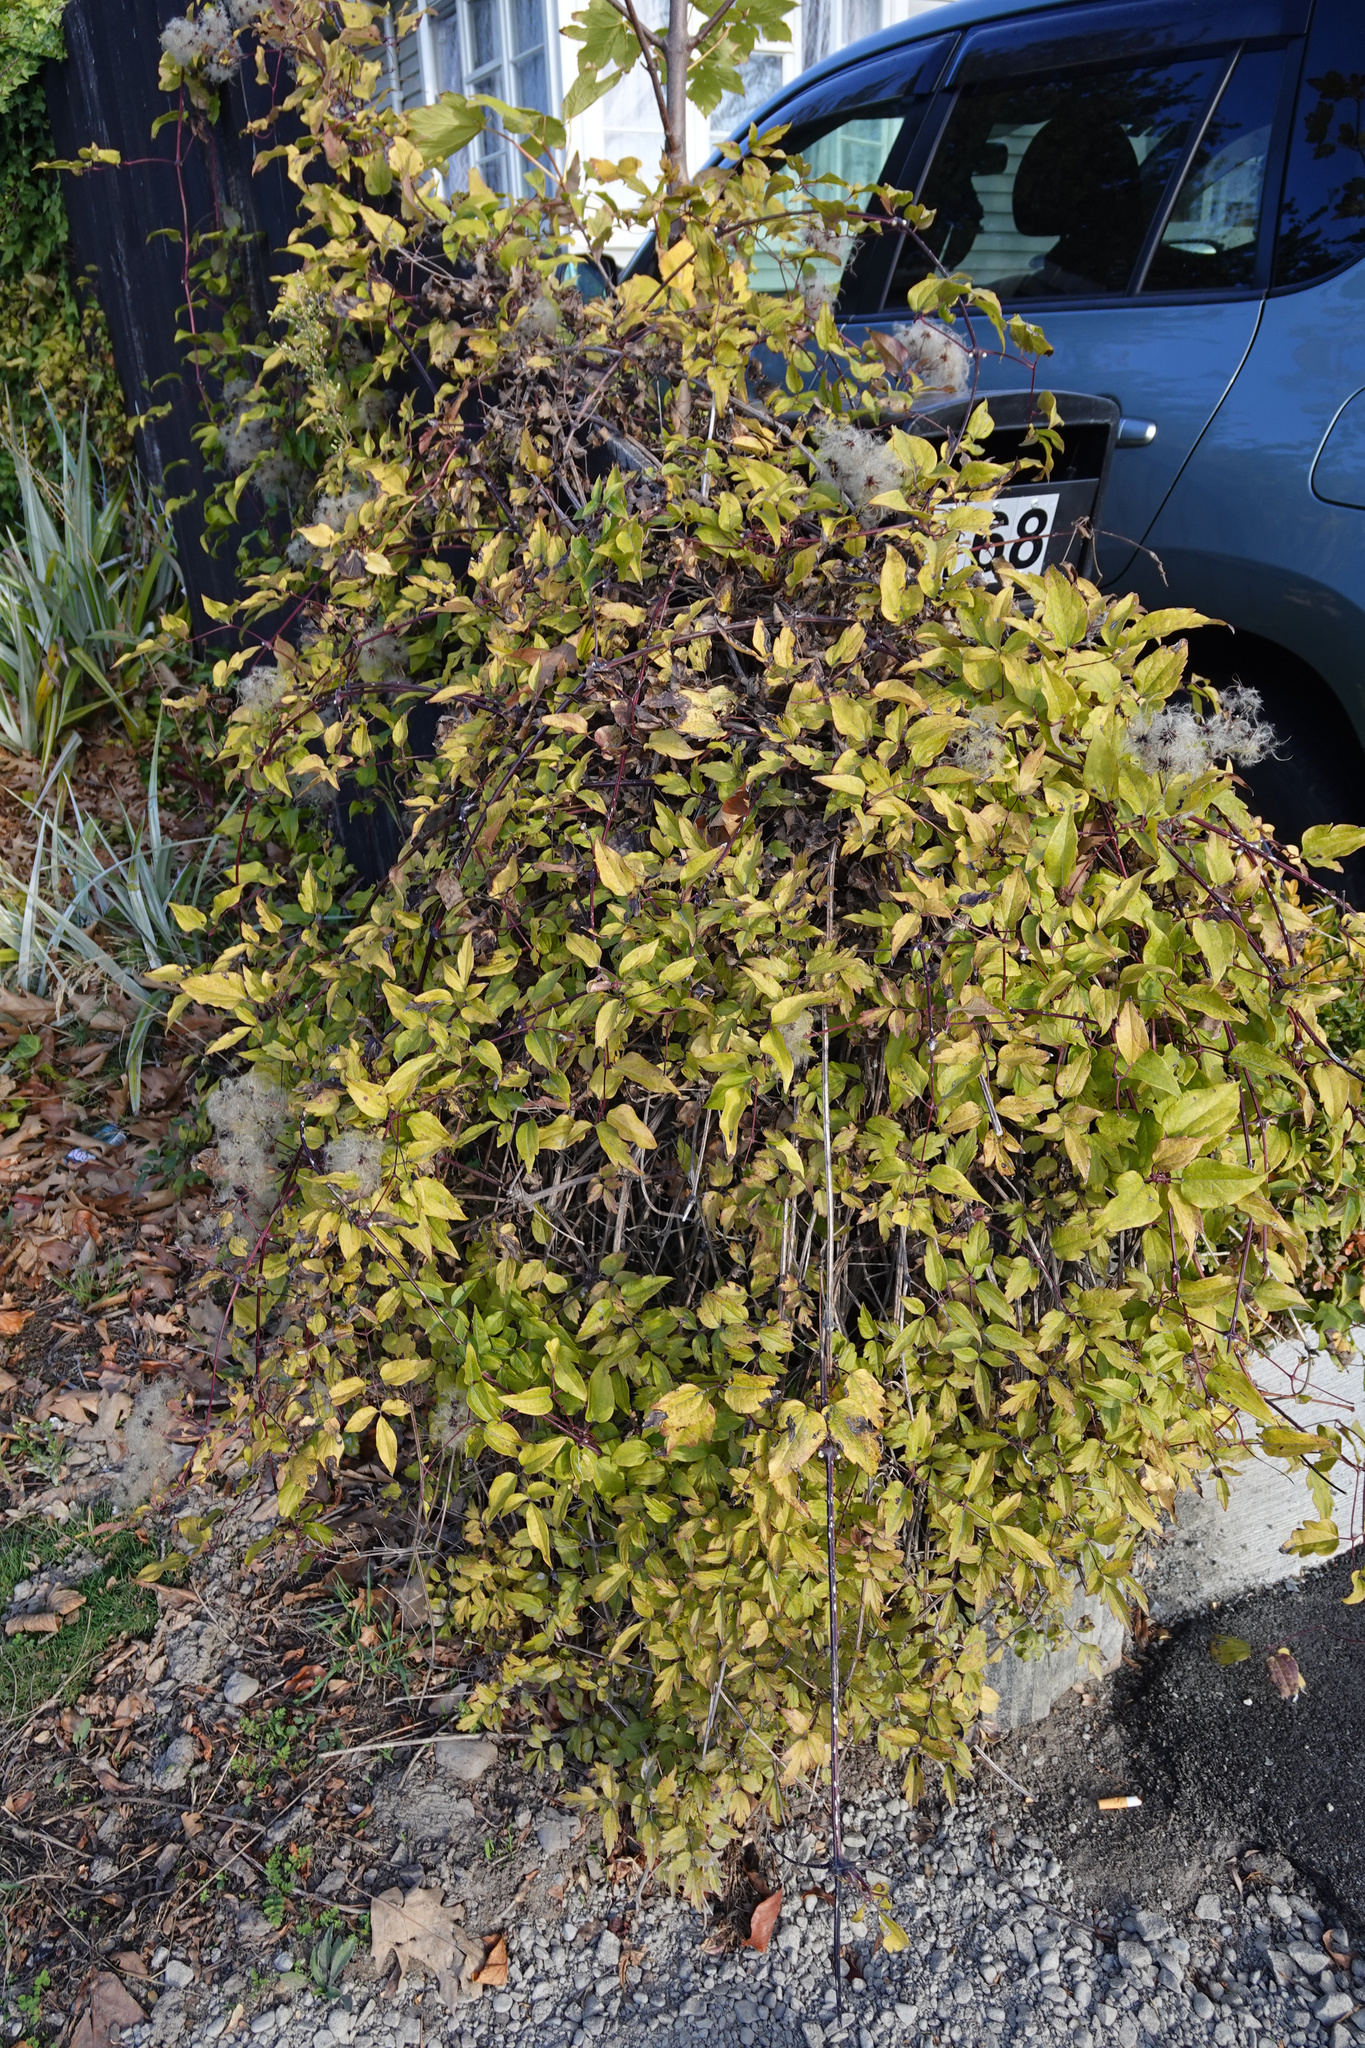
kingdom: Plantae
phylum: Tracheophyta
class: Magnoliopsida
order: Ranunculales
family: Ranunculaceae
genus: Clematis
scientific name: Clematis vitalba
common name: Evergreen clematis
